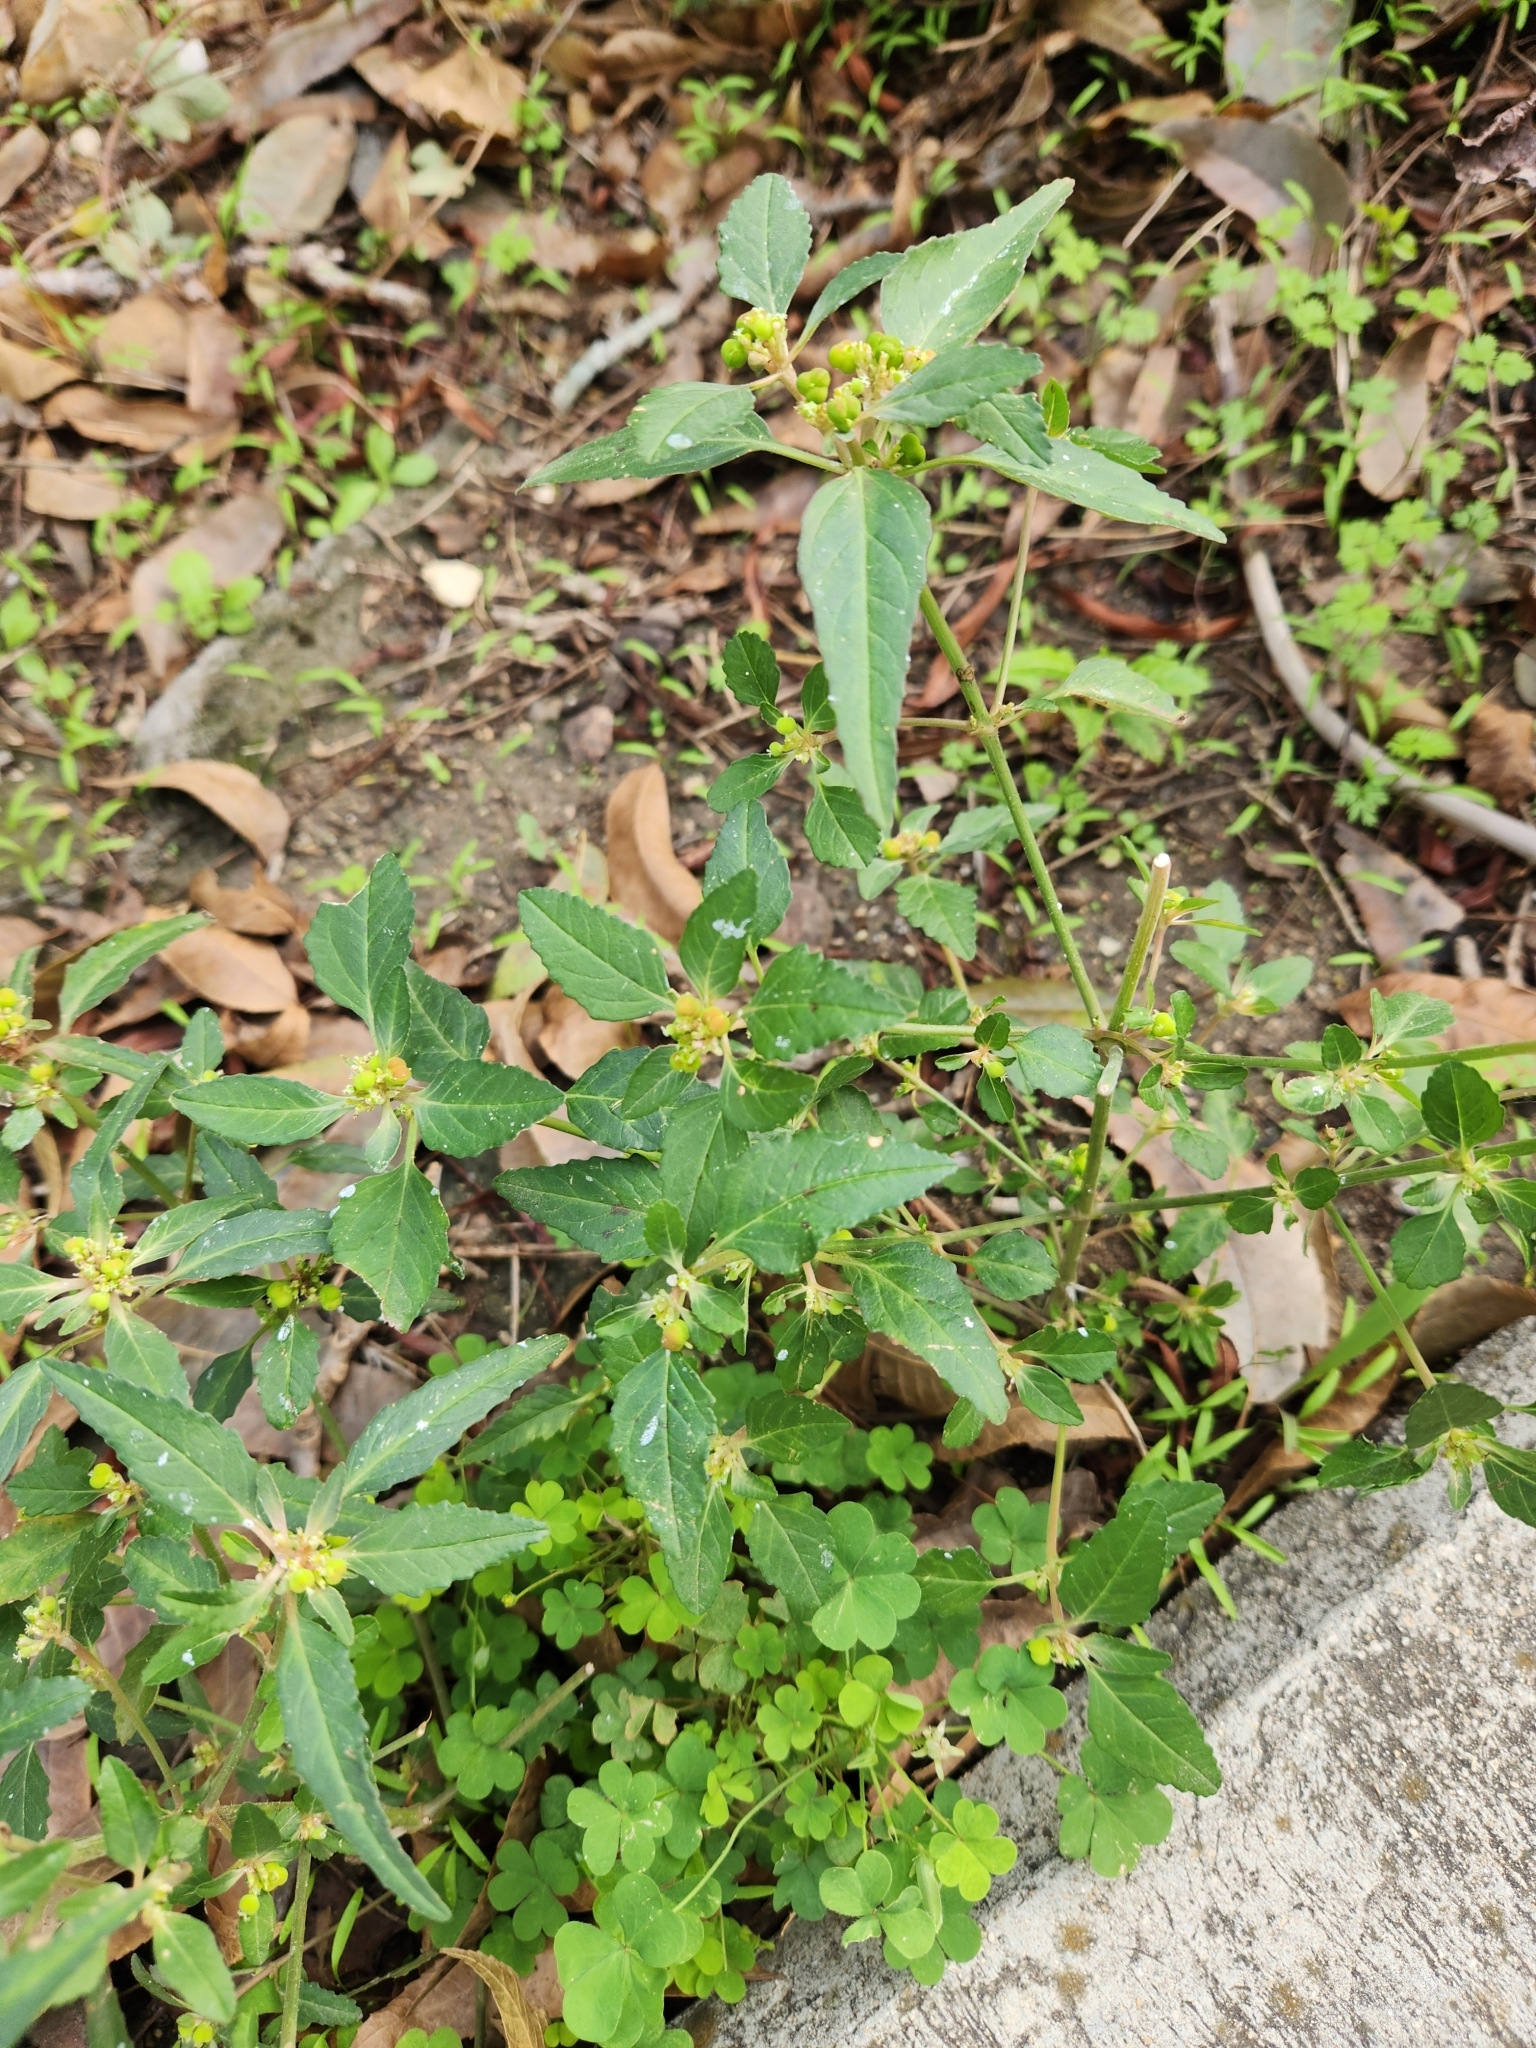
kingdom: Plantae
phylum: Tracheophyta
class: Magnoliopsida
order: Malpighiales
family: Euphorbiaceae
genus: Euphorbia
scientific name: Euphorbia dentata
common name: Dentate spurge
